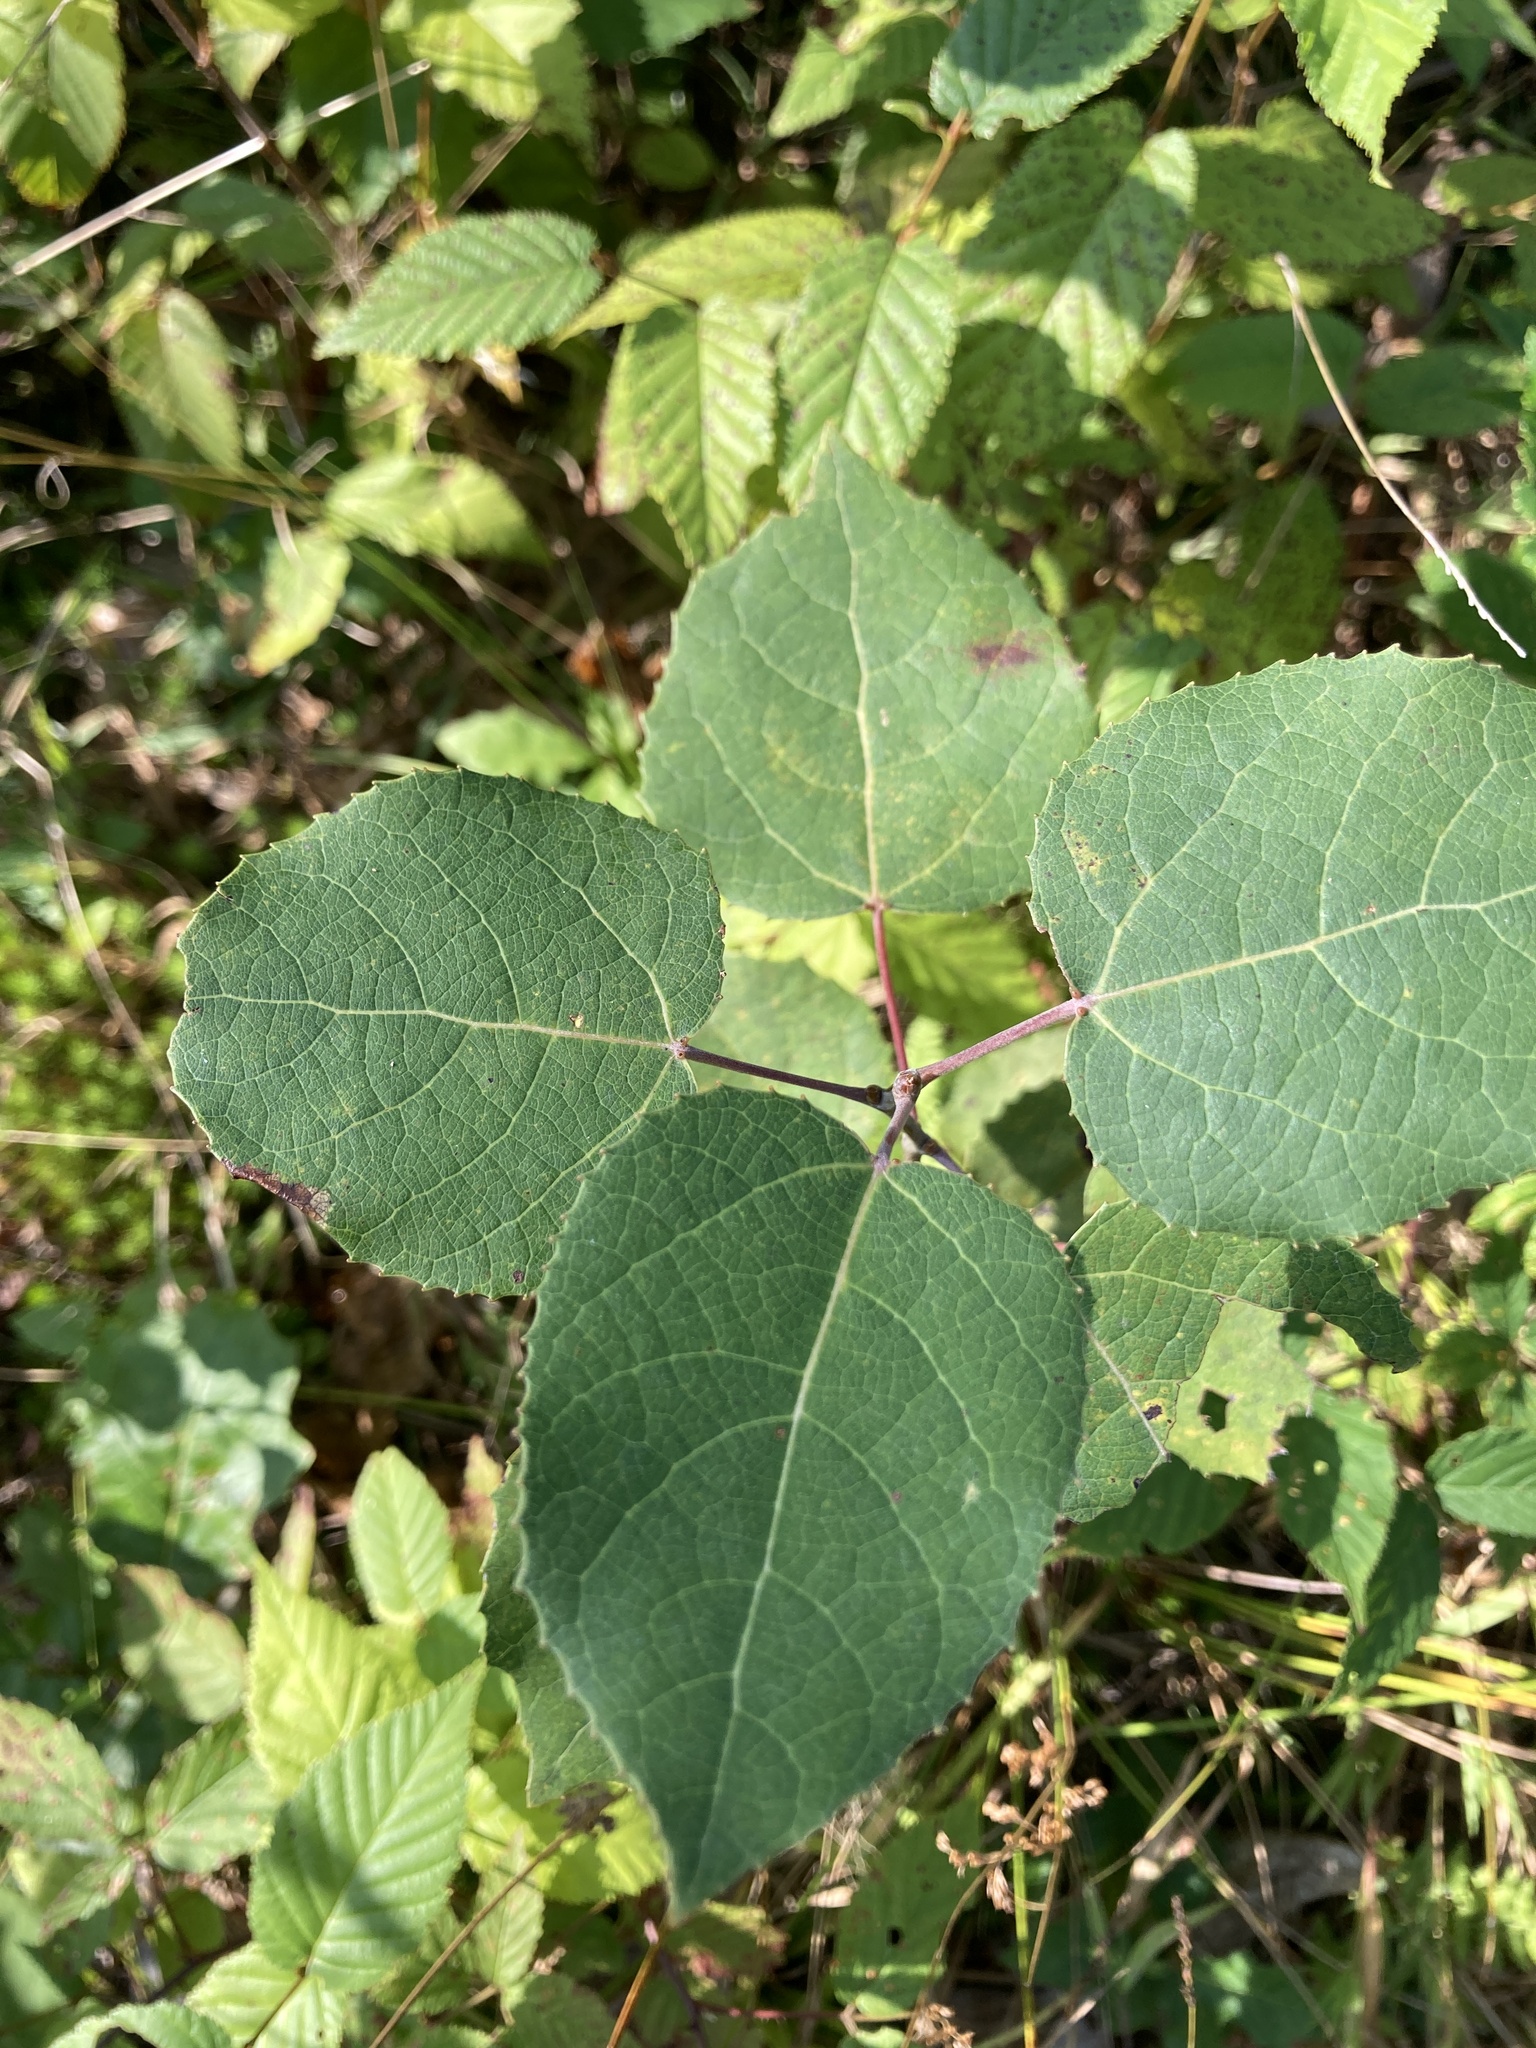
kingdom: Plantae
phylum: Tracheophyta
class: Magnoliopsida
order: Malpighiales
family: Salicaceae
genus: Populus
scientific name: Populus tremuloides
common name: Quaking aspen
